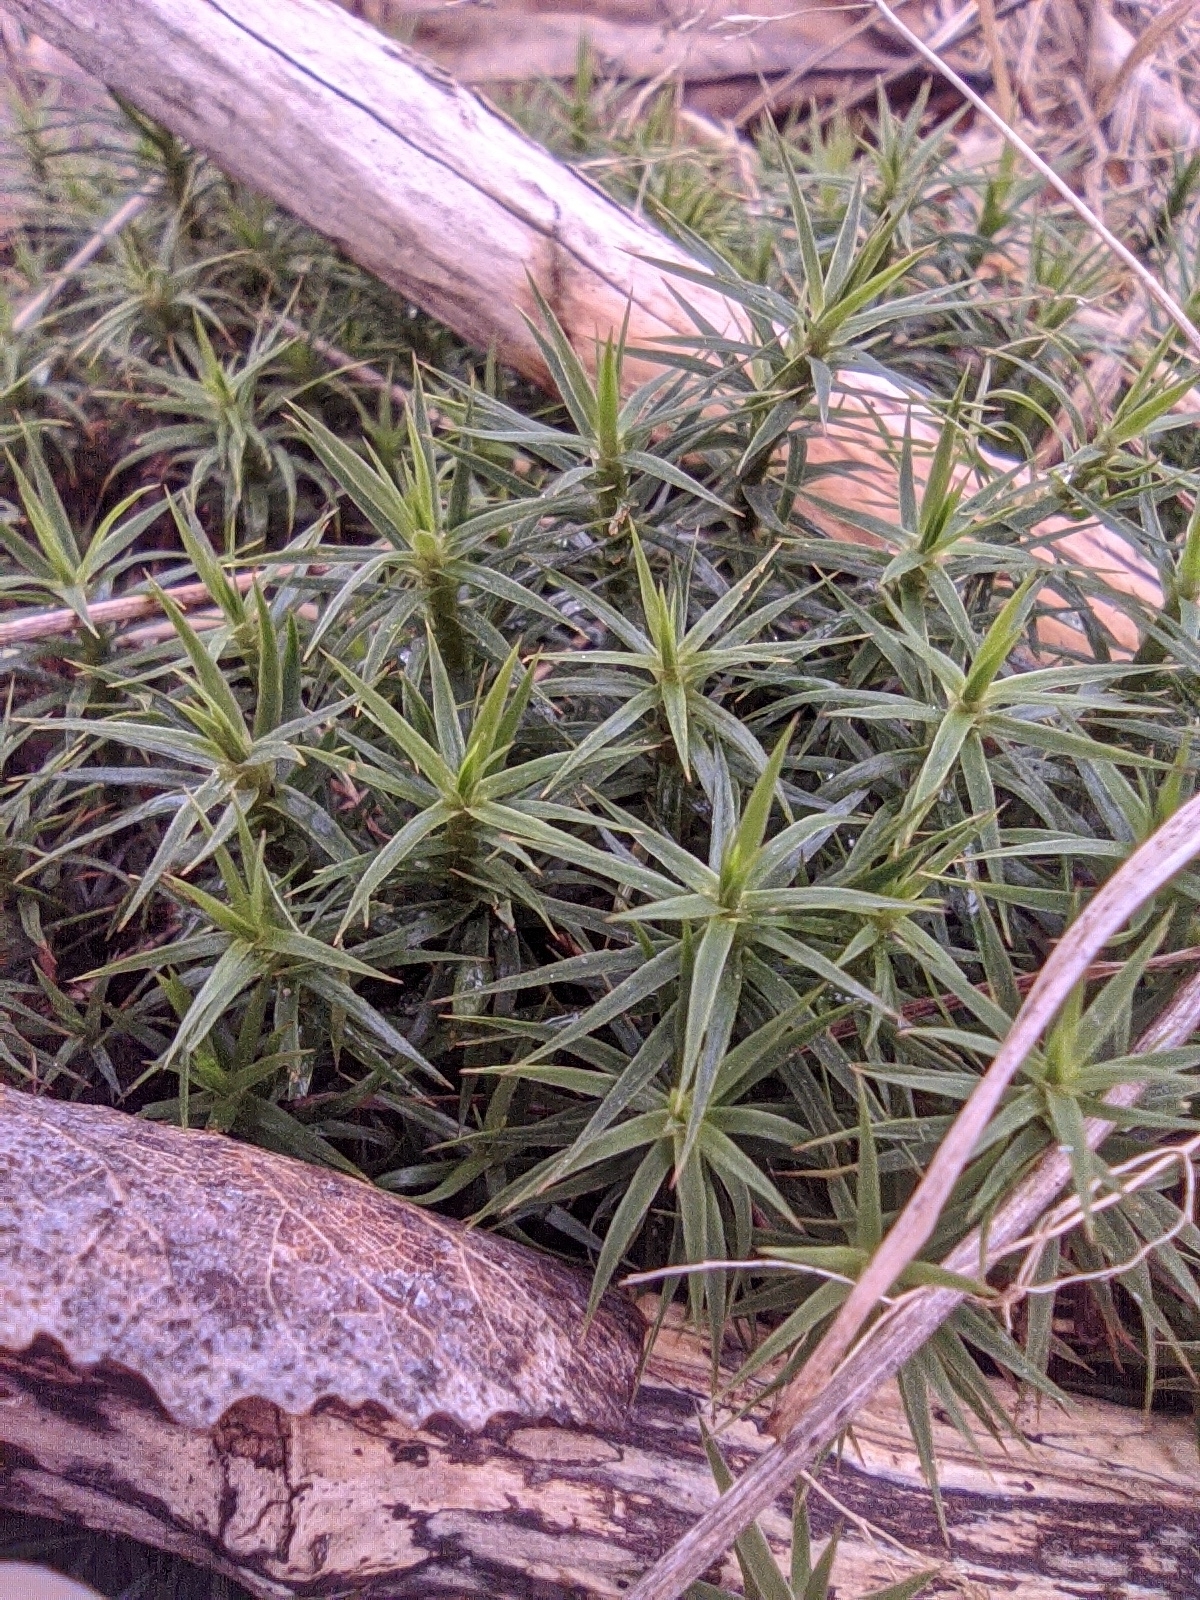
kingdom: Plantae
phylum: Bryophyta
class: Polytrichopsida
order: Polytrichales
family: Polytrichaceae
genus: Polytrichum
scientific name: Polytrichum formosum
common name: Bank haircap moss
